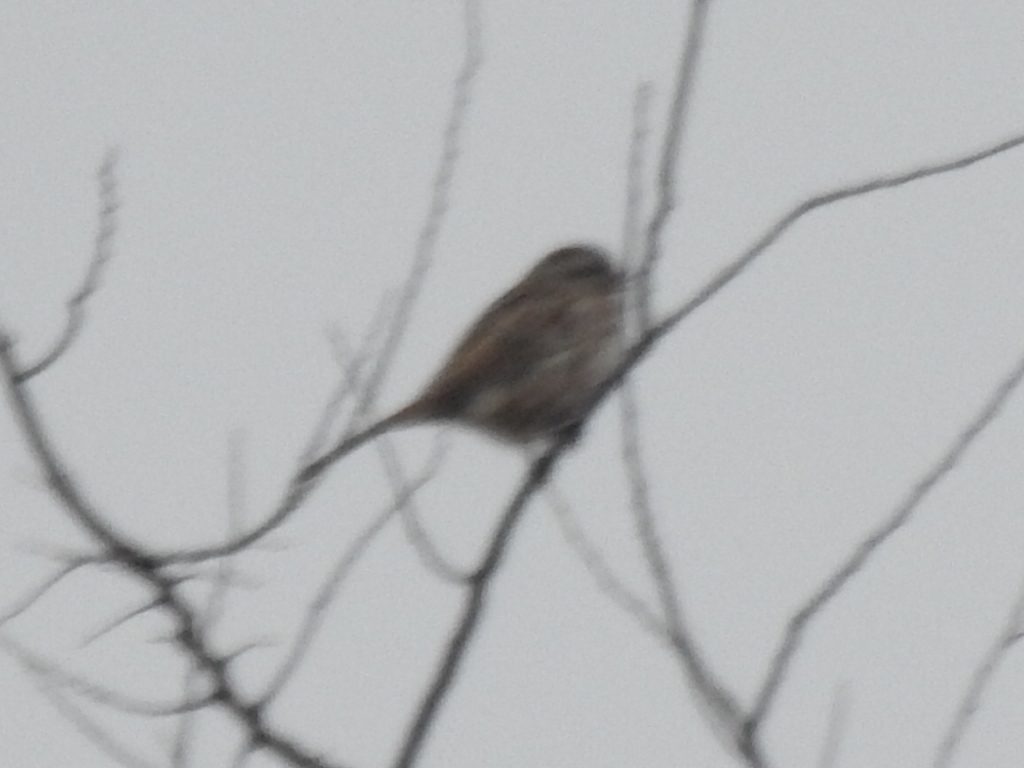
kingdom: Animalia
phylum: Chordata
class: Aves
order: Passeriformes
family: Passerellidae
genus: Melospiza
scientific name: Melospiza melodia
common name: Song sparrow
